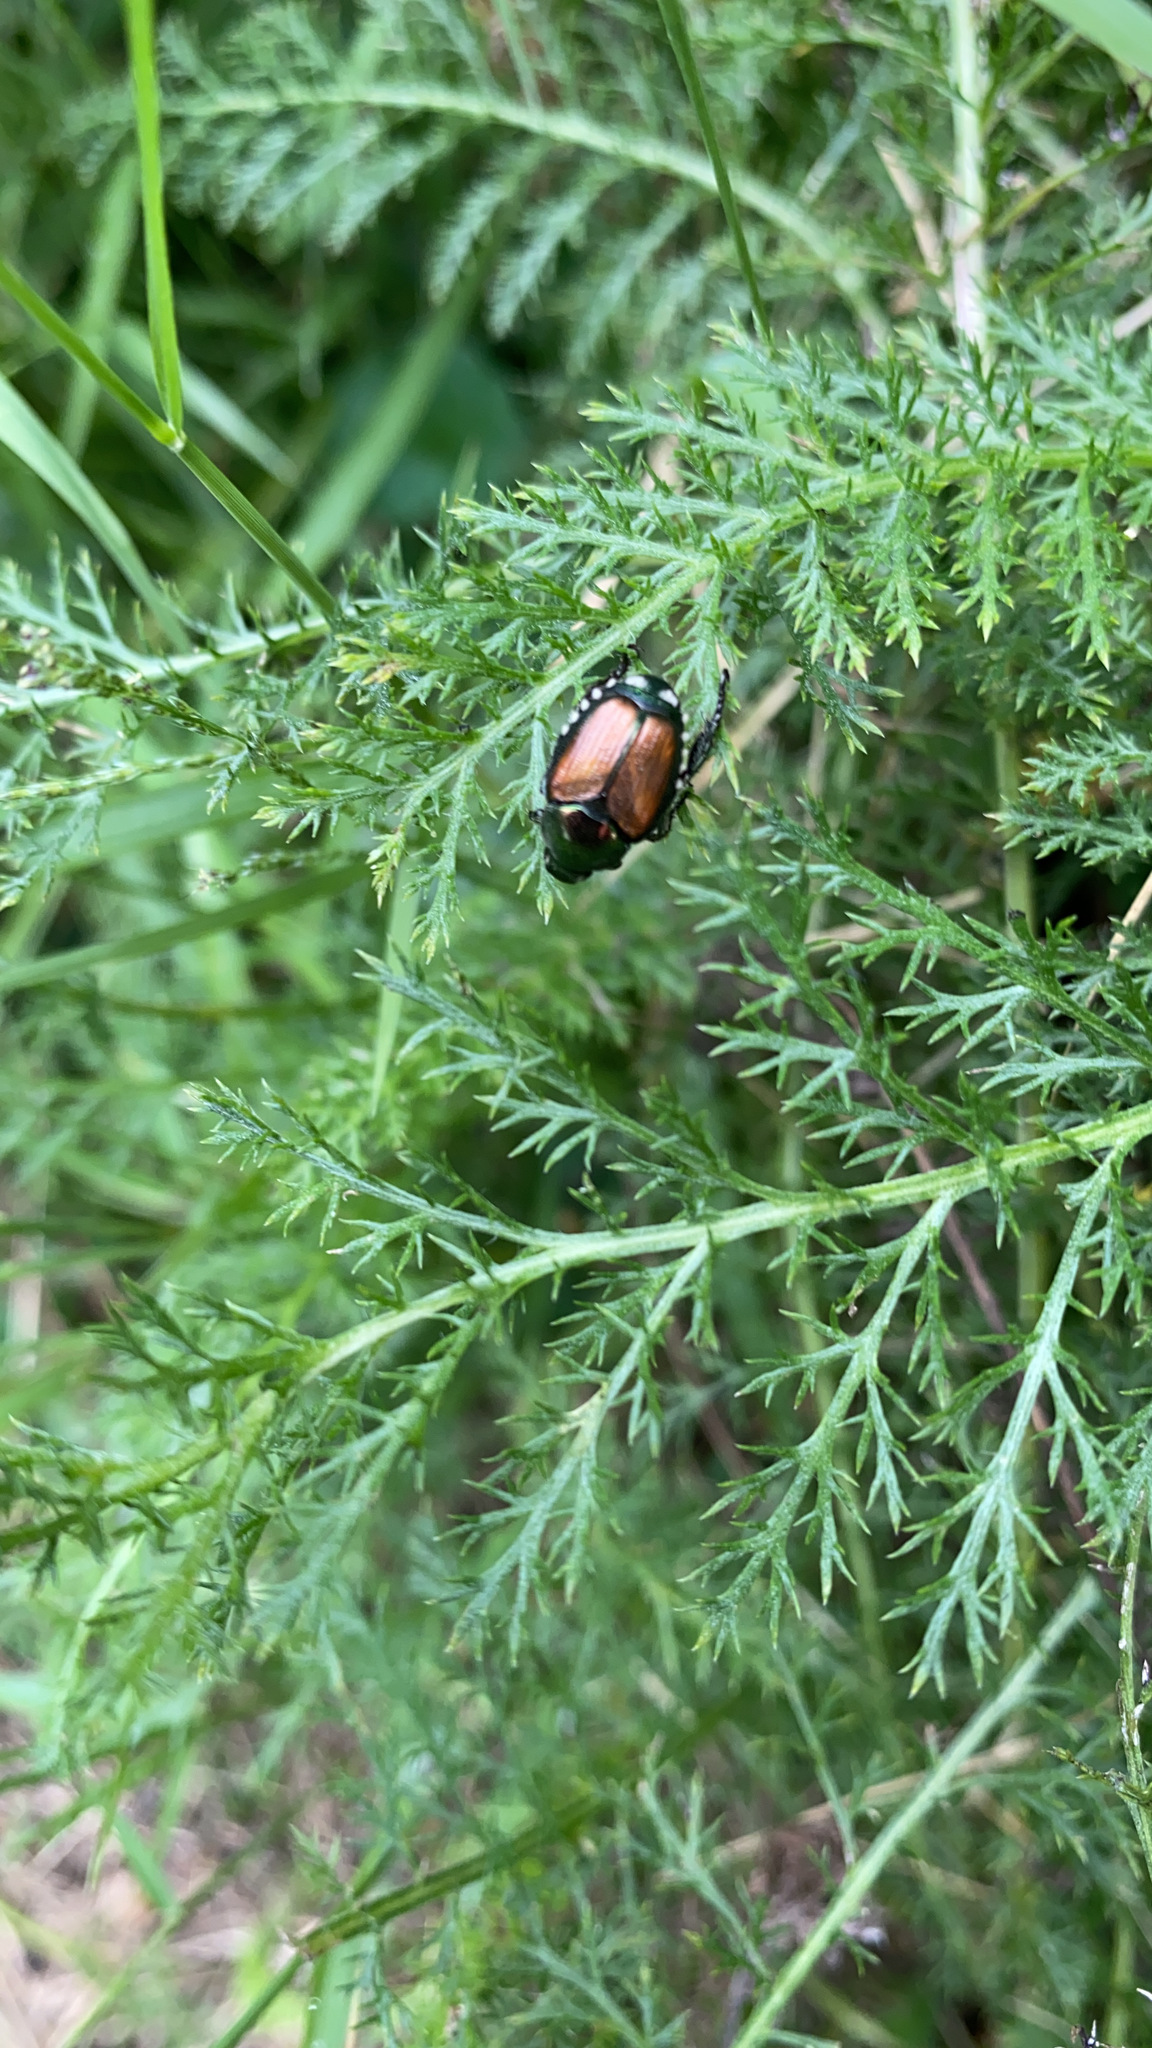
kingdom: Animalia
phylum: Arthropoda
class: Insecta
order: Coleoptera
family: Scarabaeidae
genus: Popillia
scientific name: Popillia japonica
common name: Japanese beetle
